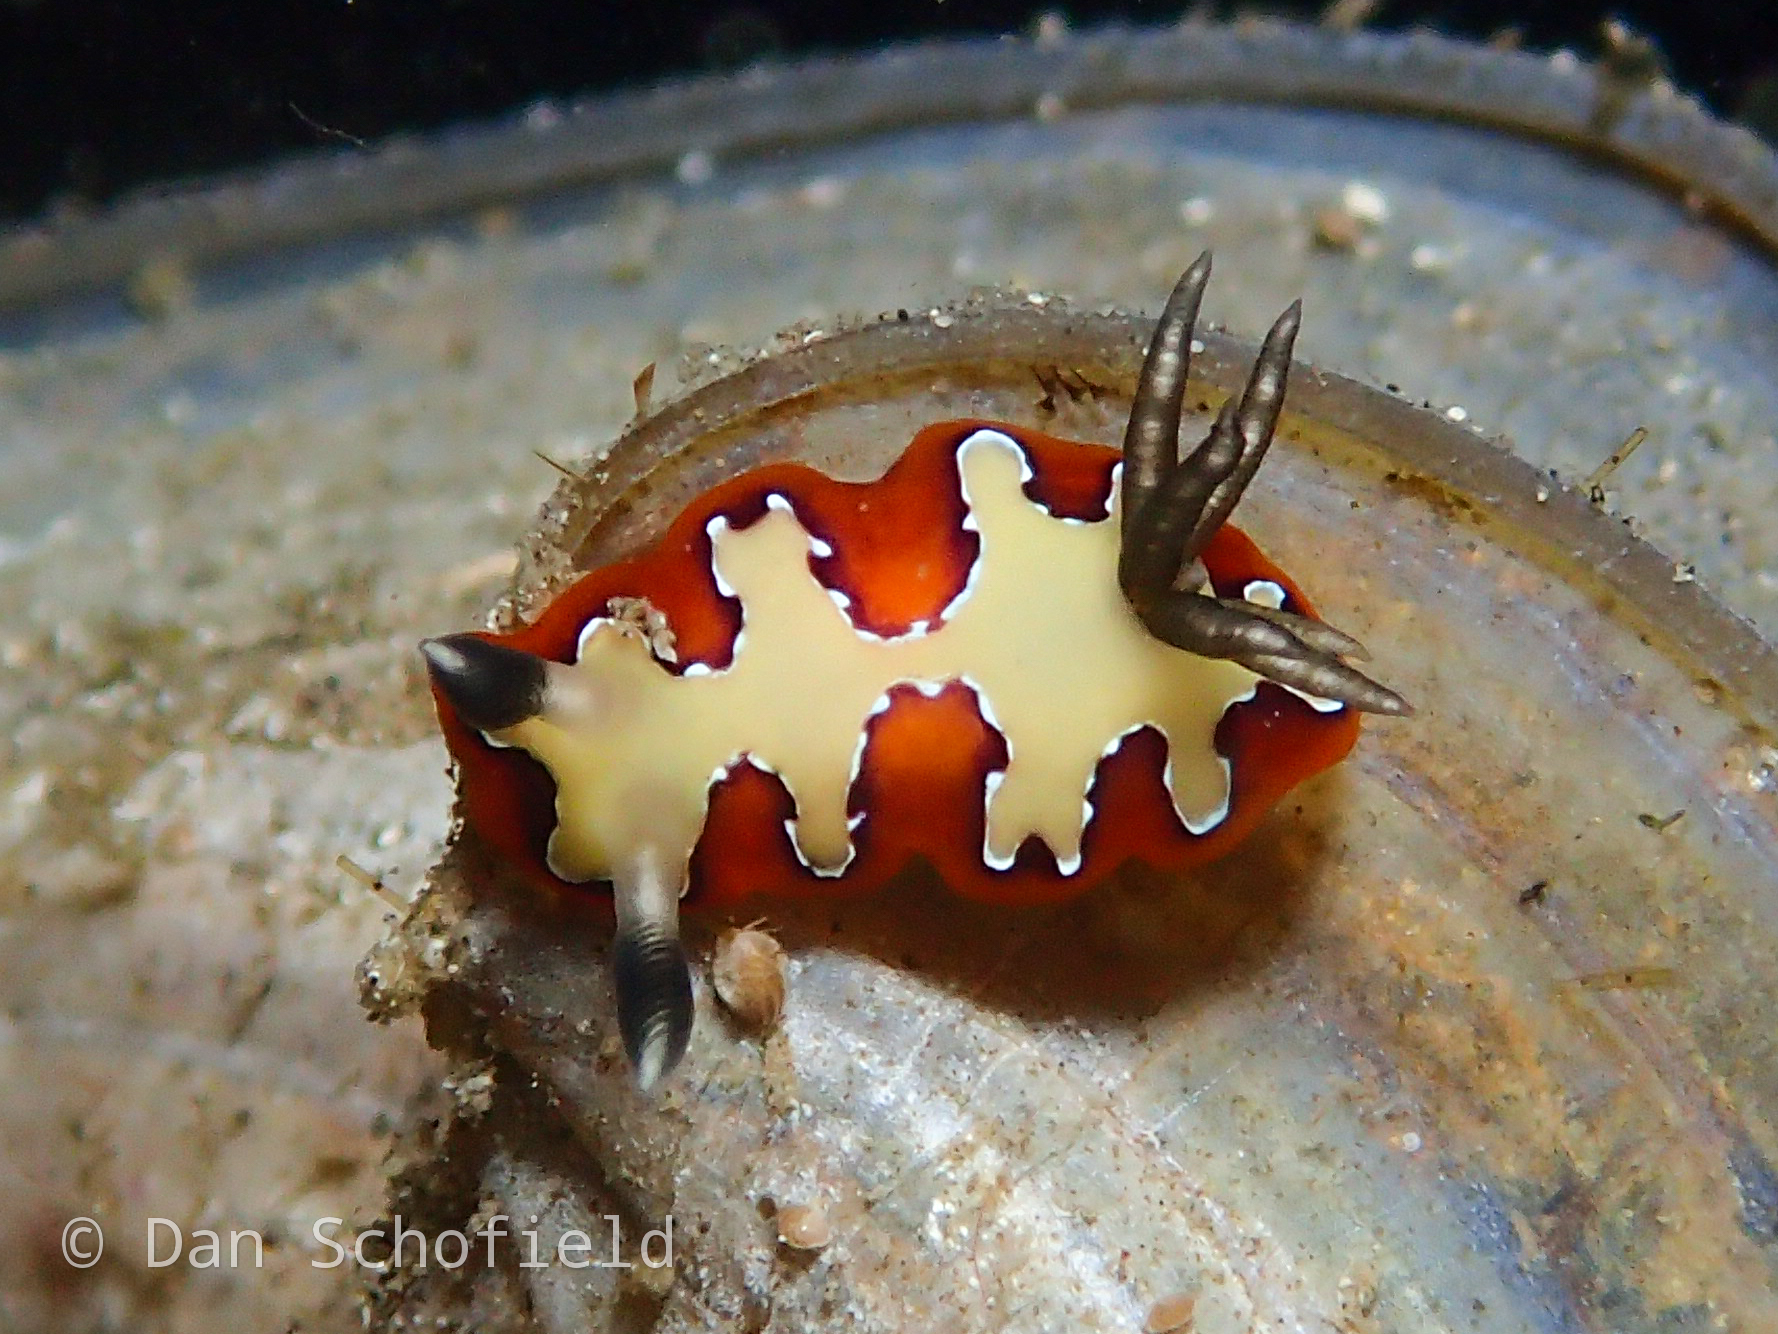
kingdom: Animalia
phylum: Mollusca
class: Gastropoda
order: Nudibranchia
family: Chromodorididae
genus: Goniobranchus
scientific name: Goniobranchus fidelis
